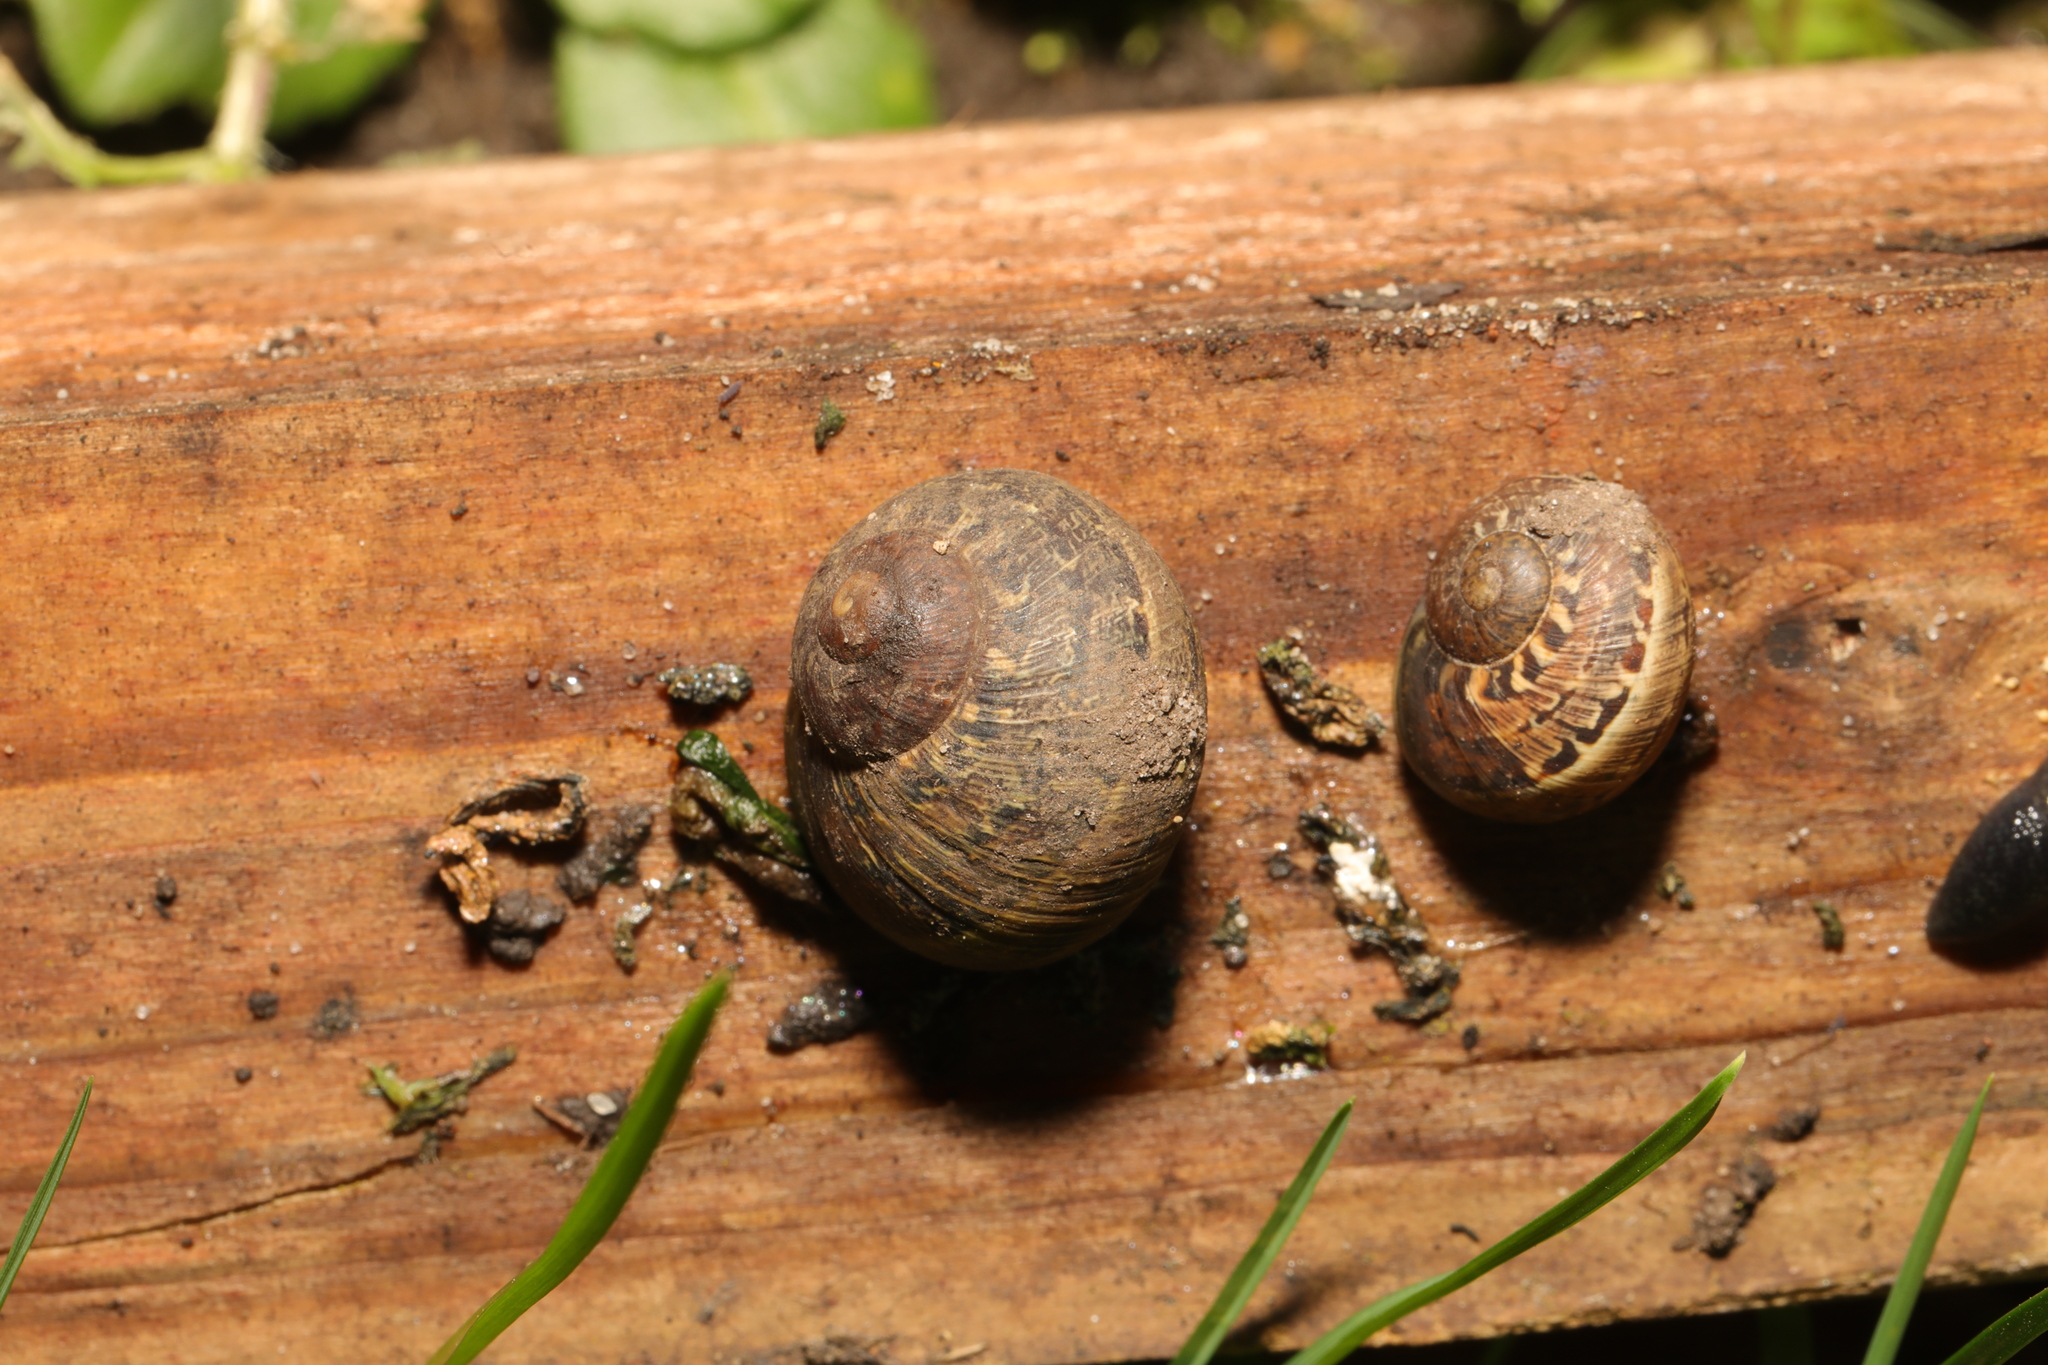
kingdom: Animalia
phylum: Mollusca
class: Gastropoda
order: Stylommatophora
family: Helicidae
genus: Cornu
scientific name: Cornu aspersum
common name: Brown garden snail
